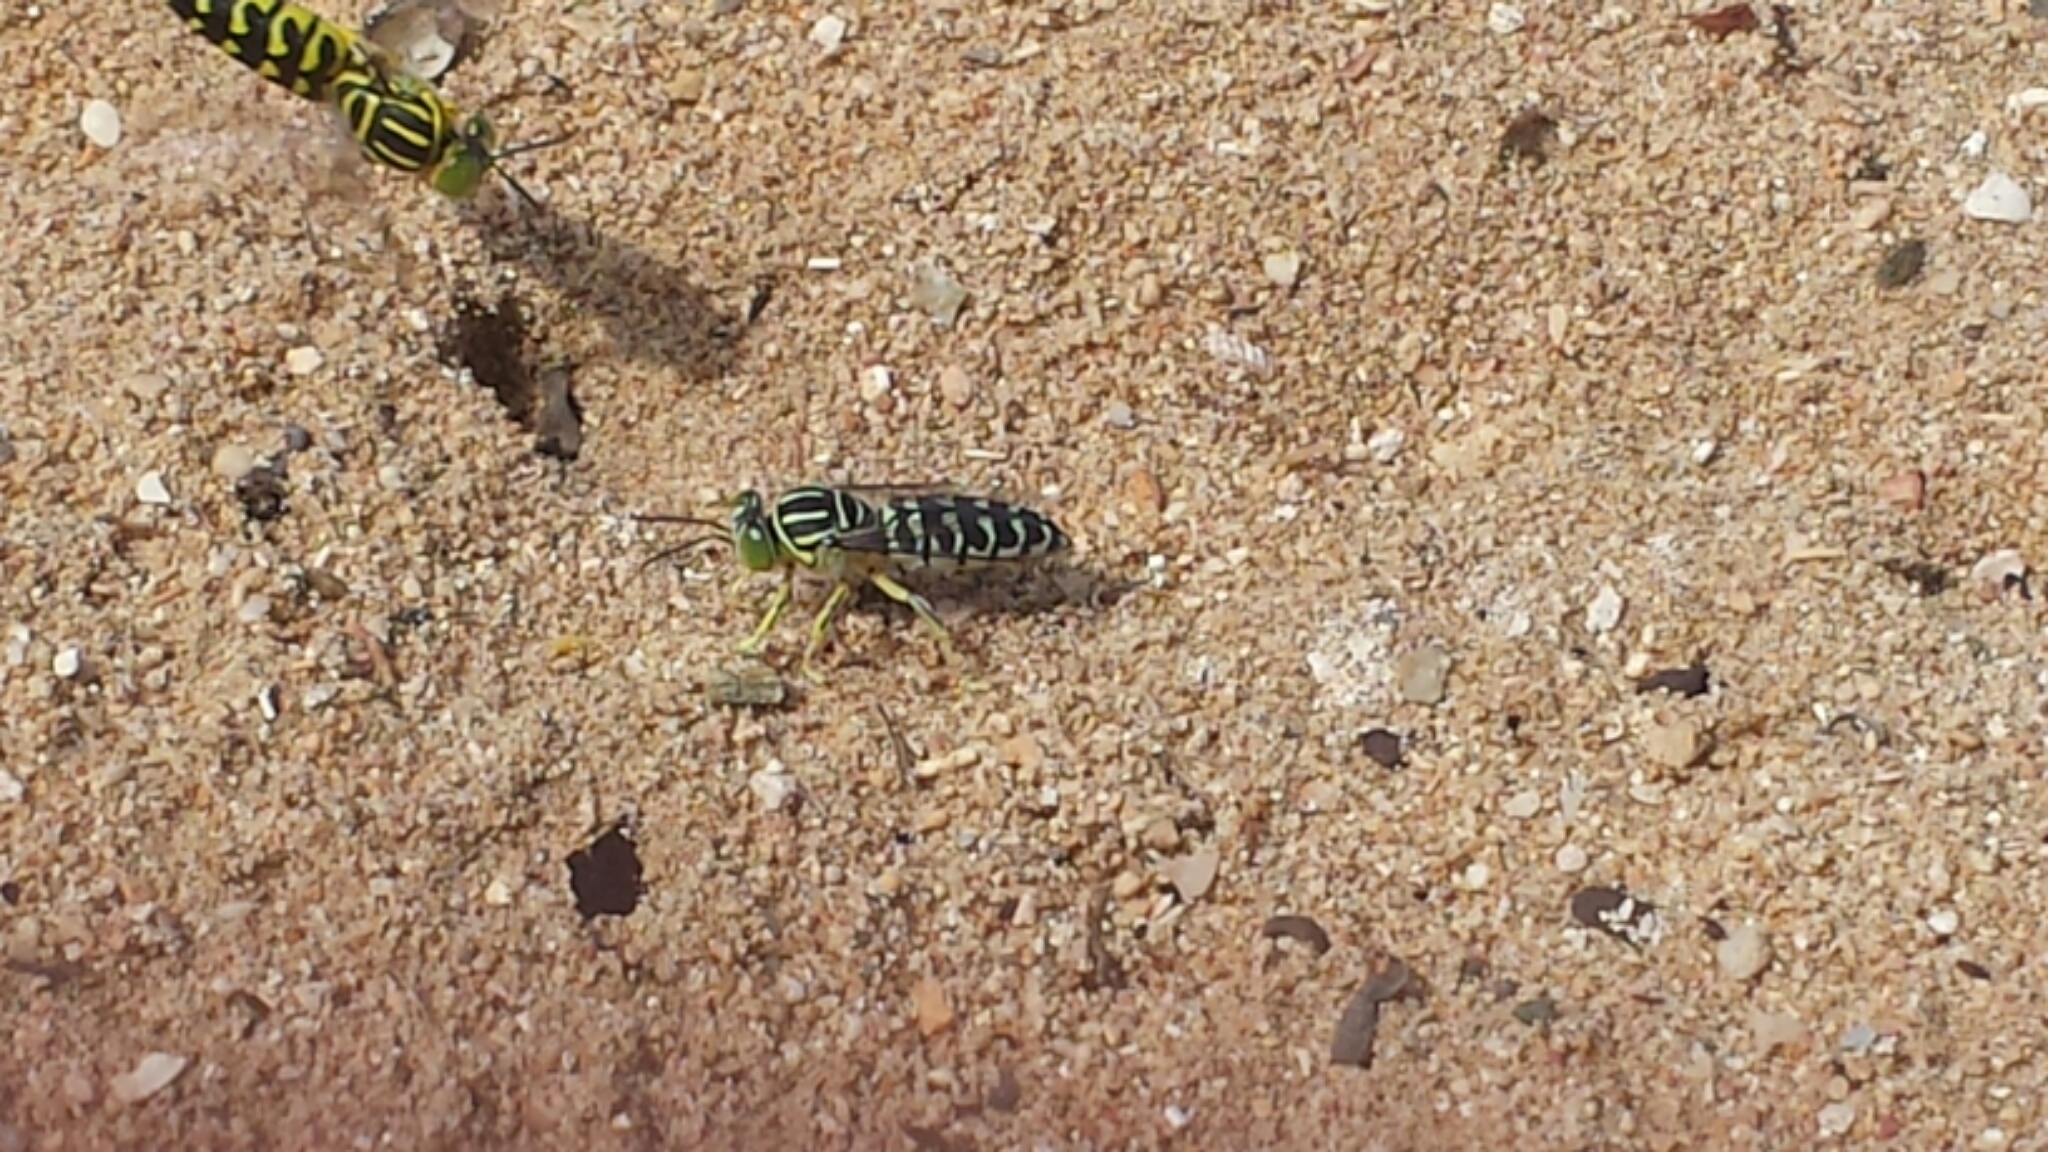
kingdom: Animalia
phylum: Arthropoda
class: Insecta
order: Hymenoptera
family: Crabronidae
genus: Stictia
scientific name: Stictia signata
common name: Sand wasp
